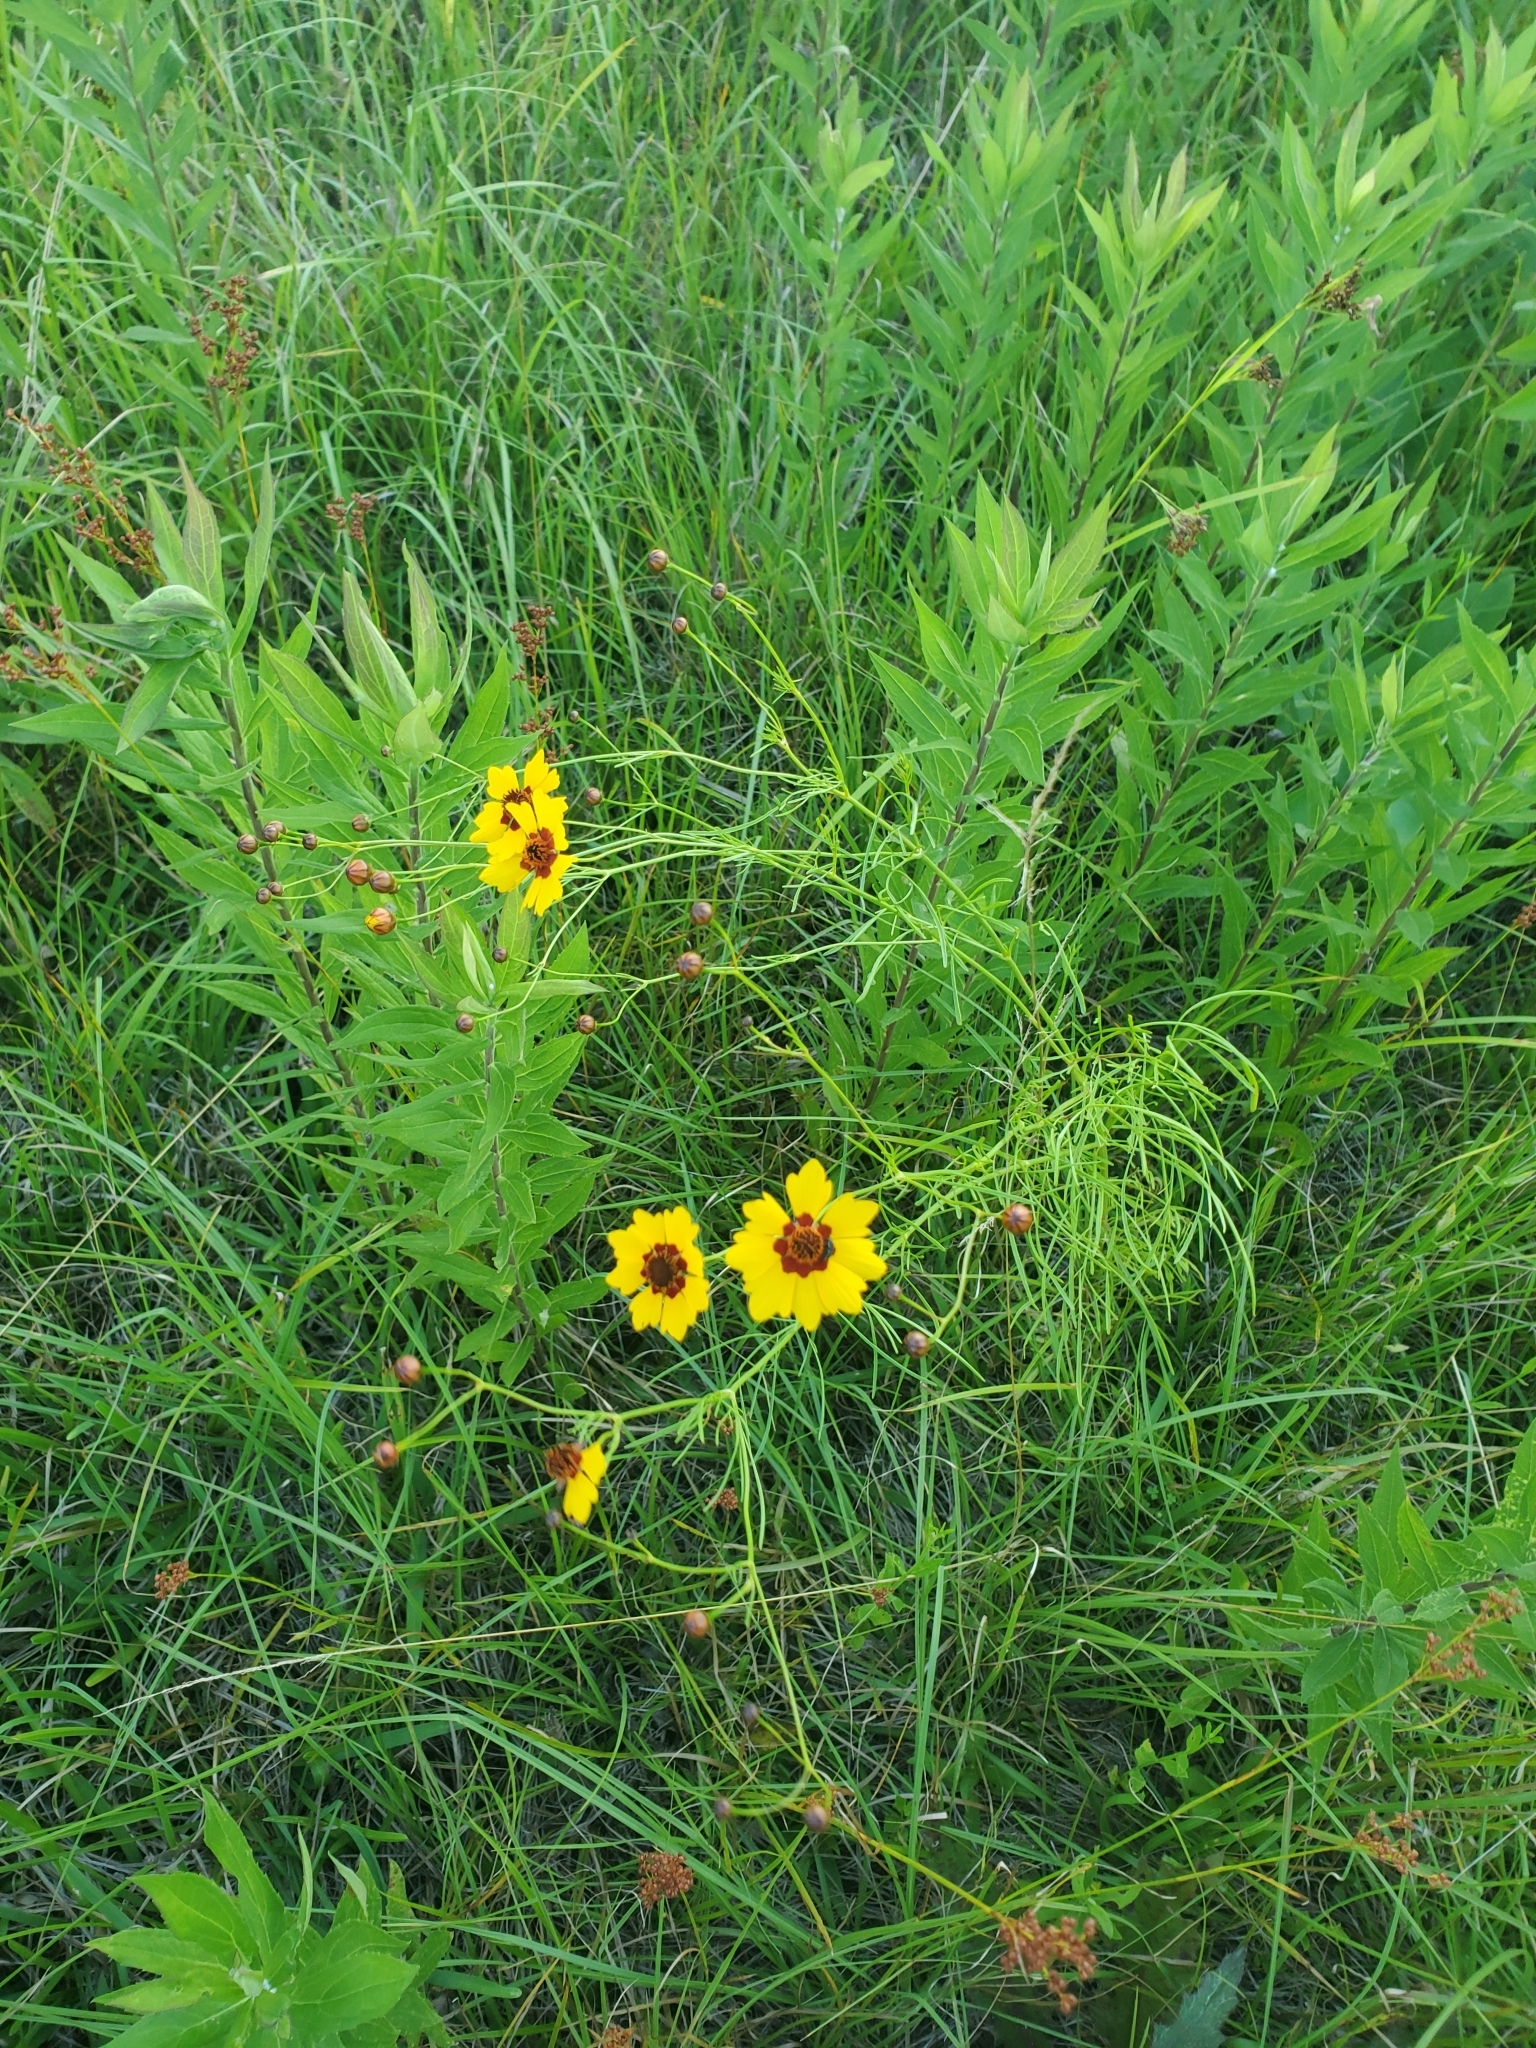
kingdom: Plantae
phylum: Tracheophyta
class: Magnoliopsida
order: Asterales
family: Asteraceae
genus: Coreopsis
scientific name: Coreopsis tinctoria
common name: Garden tickseed
